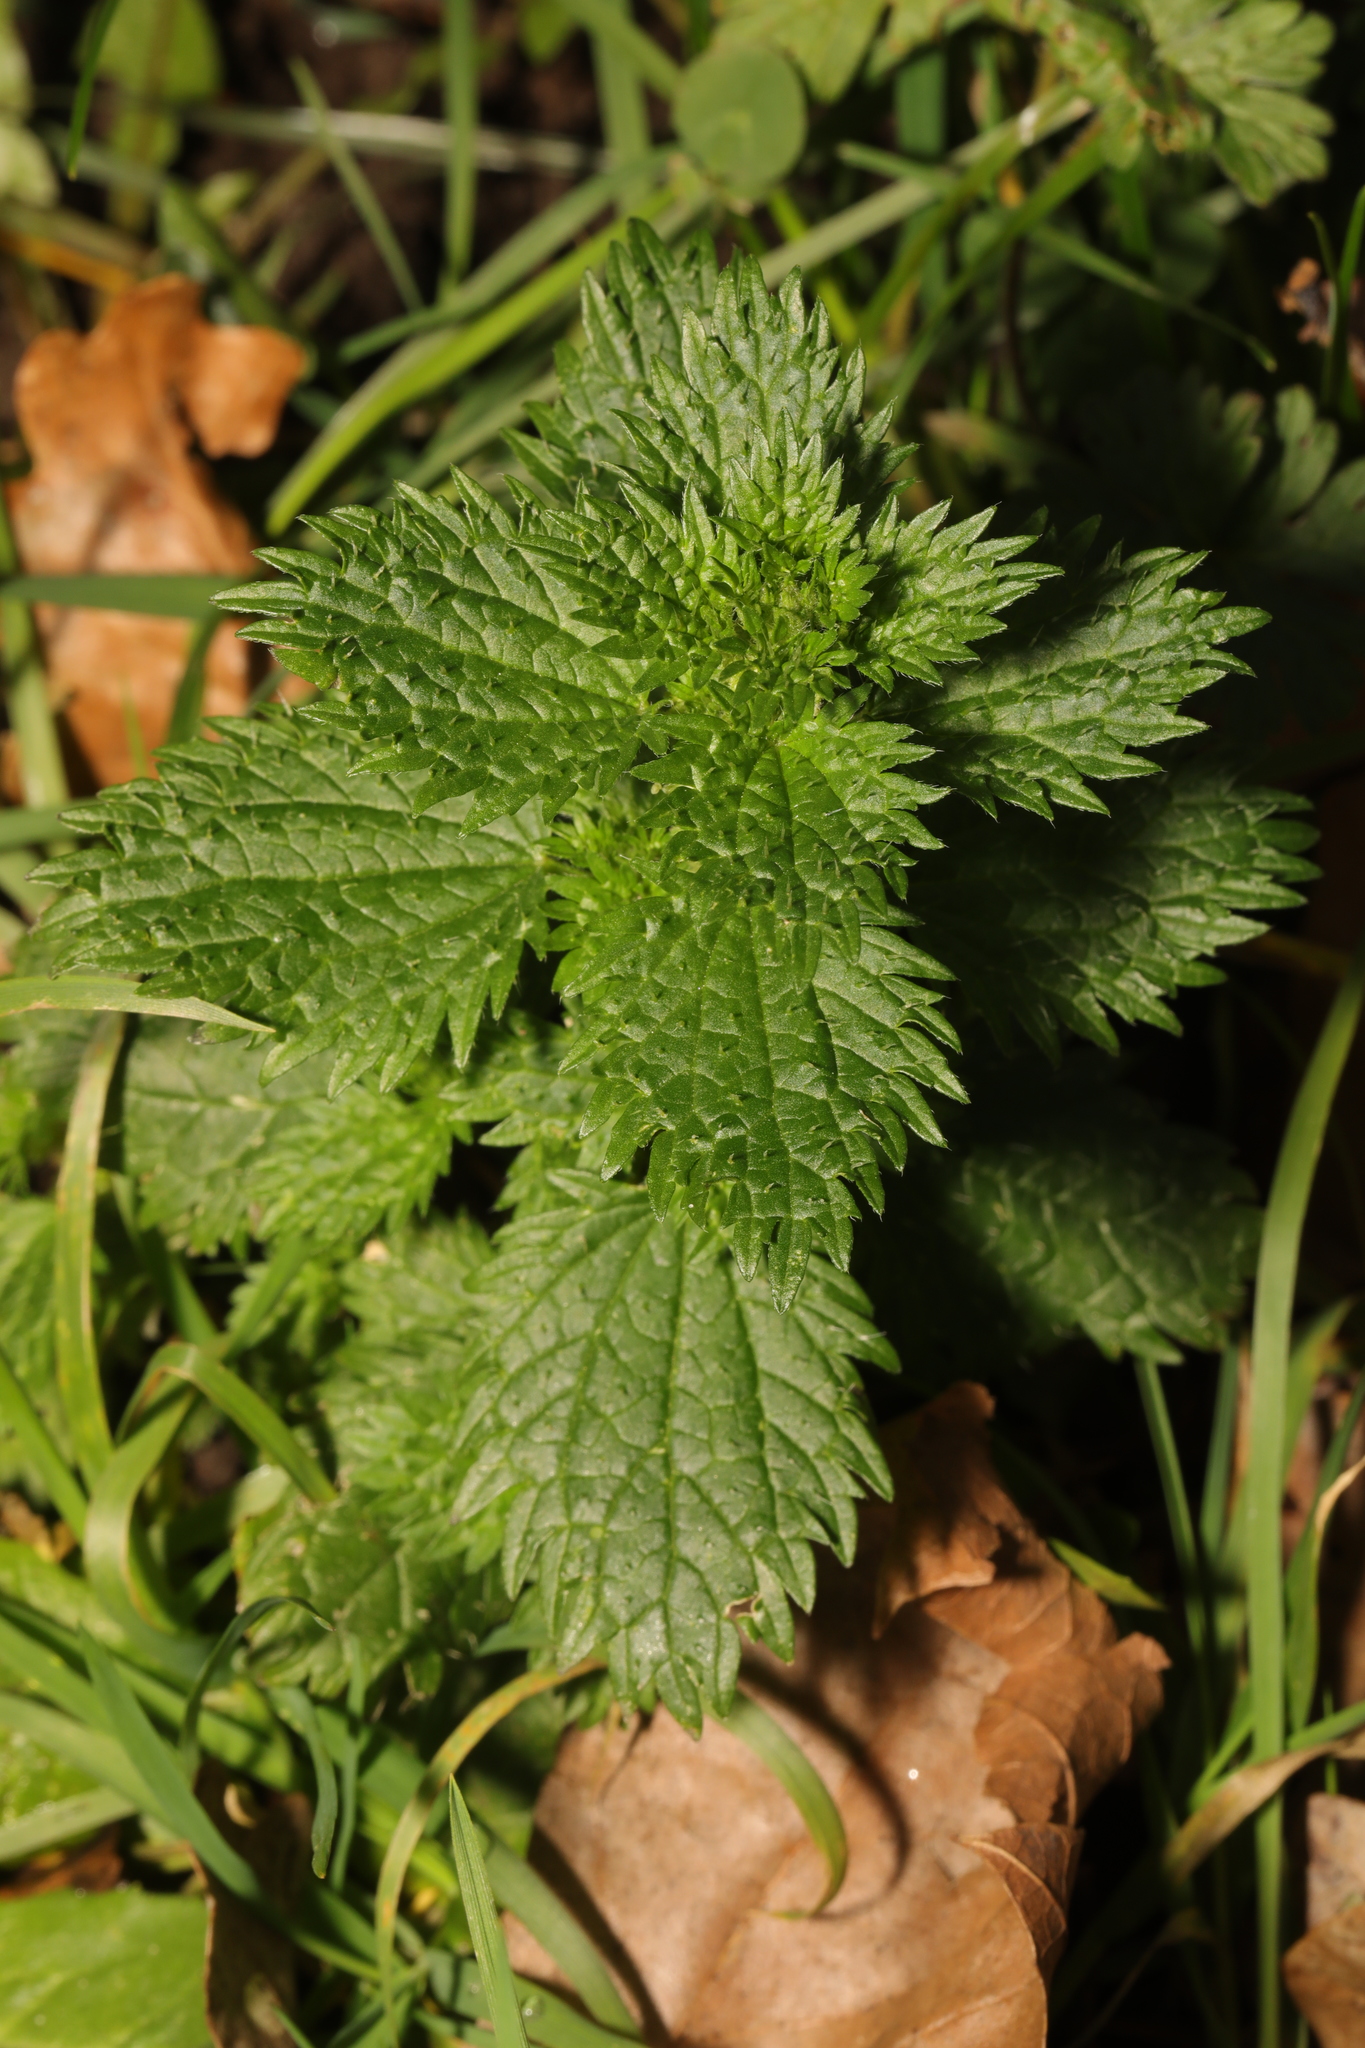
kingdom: Plantae
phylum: Tracheophyta
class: Magnoliopsida
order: Rosales
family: Urticaceae
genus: Urtica
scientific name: Urtica urens
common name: Dwarf nettle
